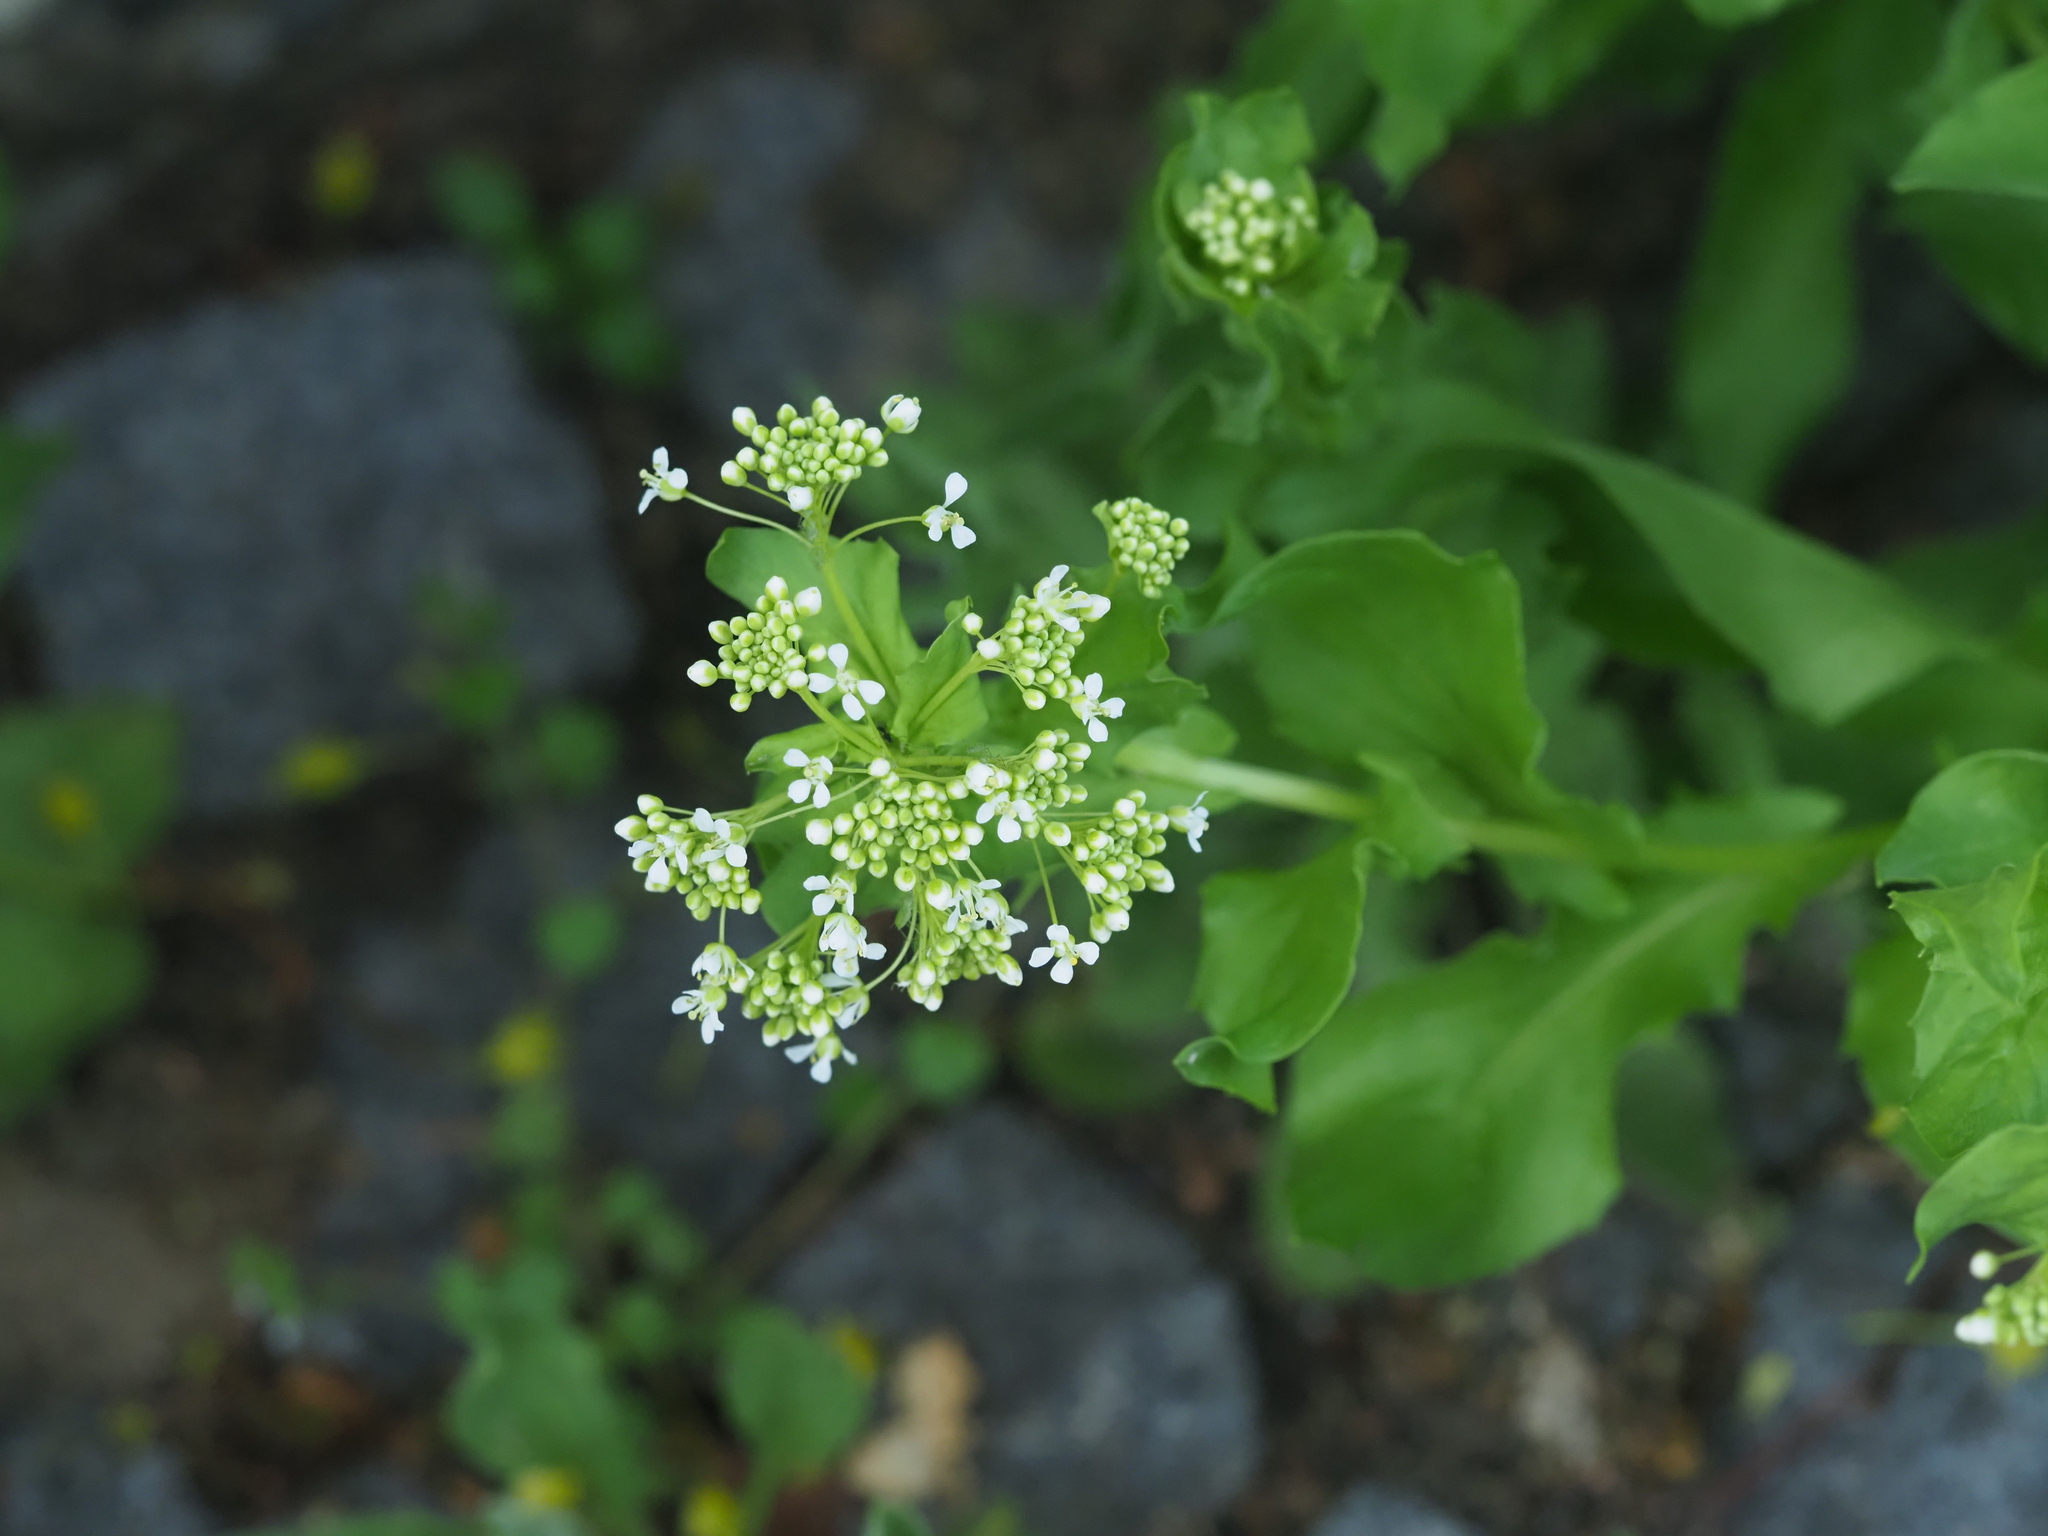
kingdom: Plantae
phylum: Tracheophyta
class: Magnoliopsida
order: Brassicales
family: Brassicaceae
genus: Lepidium
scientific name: Lepidium draba
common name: Hoary cress
